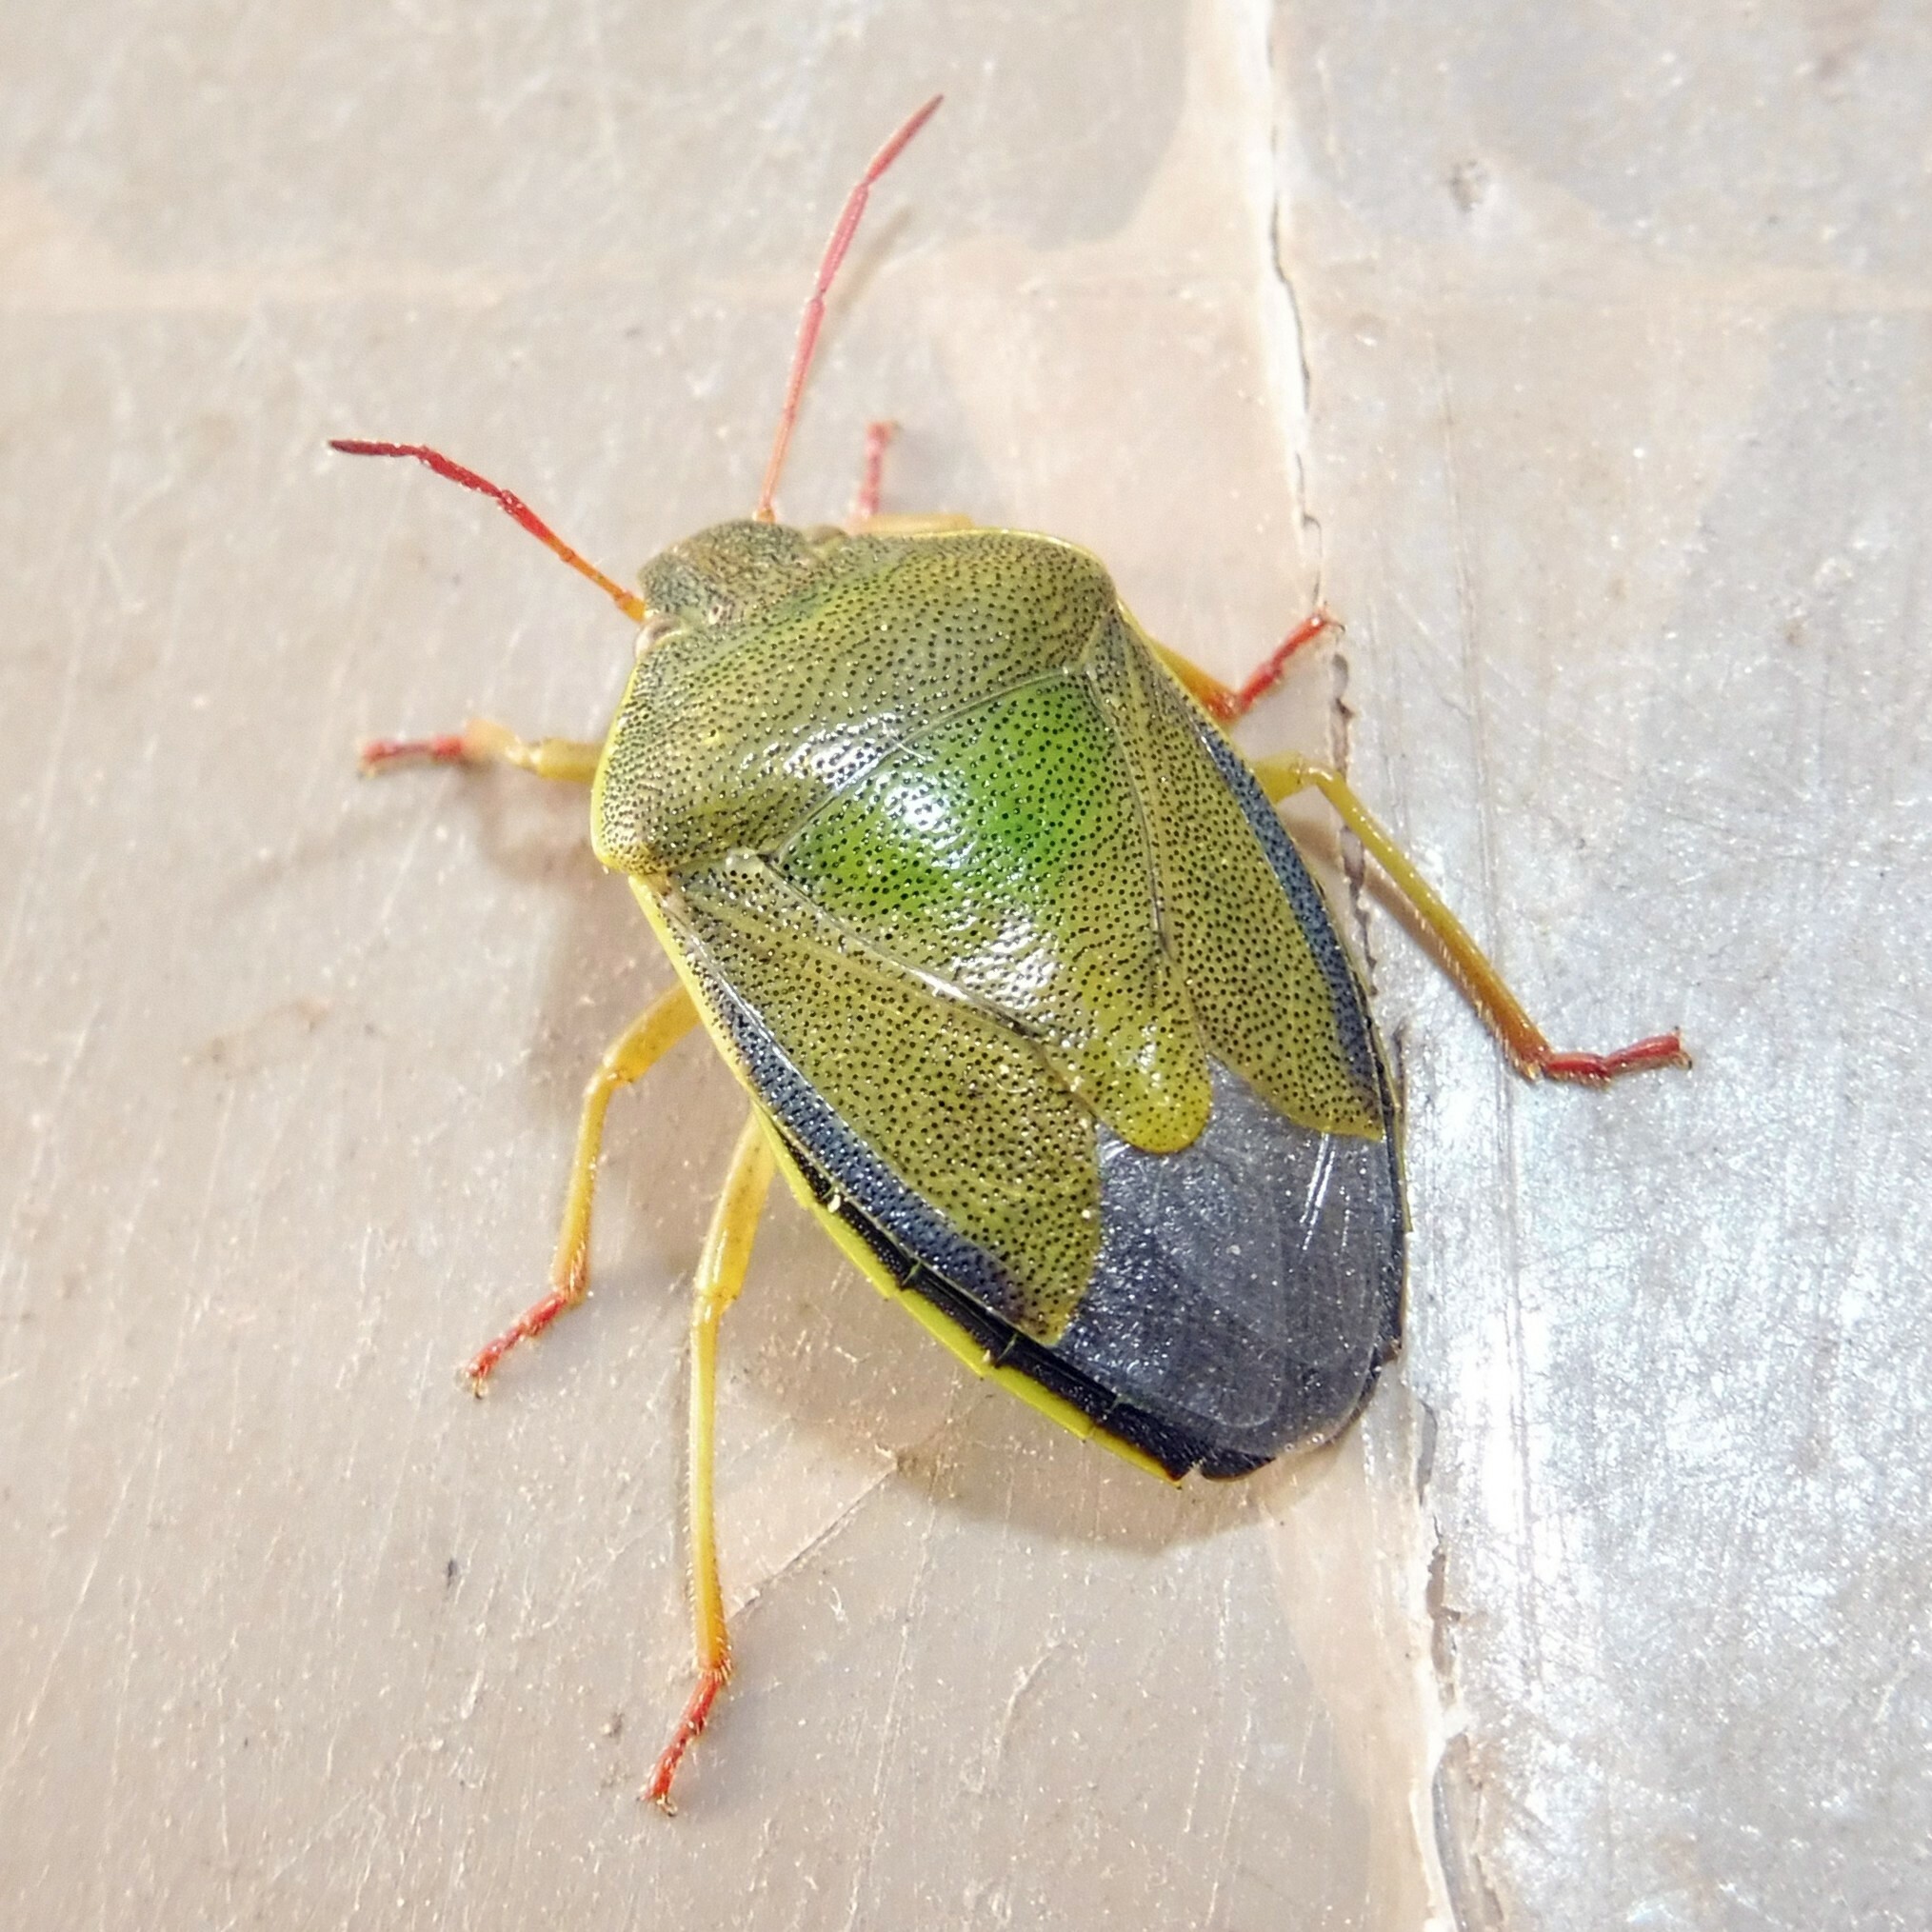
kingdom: Animalia
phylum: Arthropoda
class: Insecta
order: Hemiptera
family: Pentatomidae
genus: Piezodorus
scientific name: Piezodorus lituratus
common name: Stink bug
